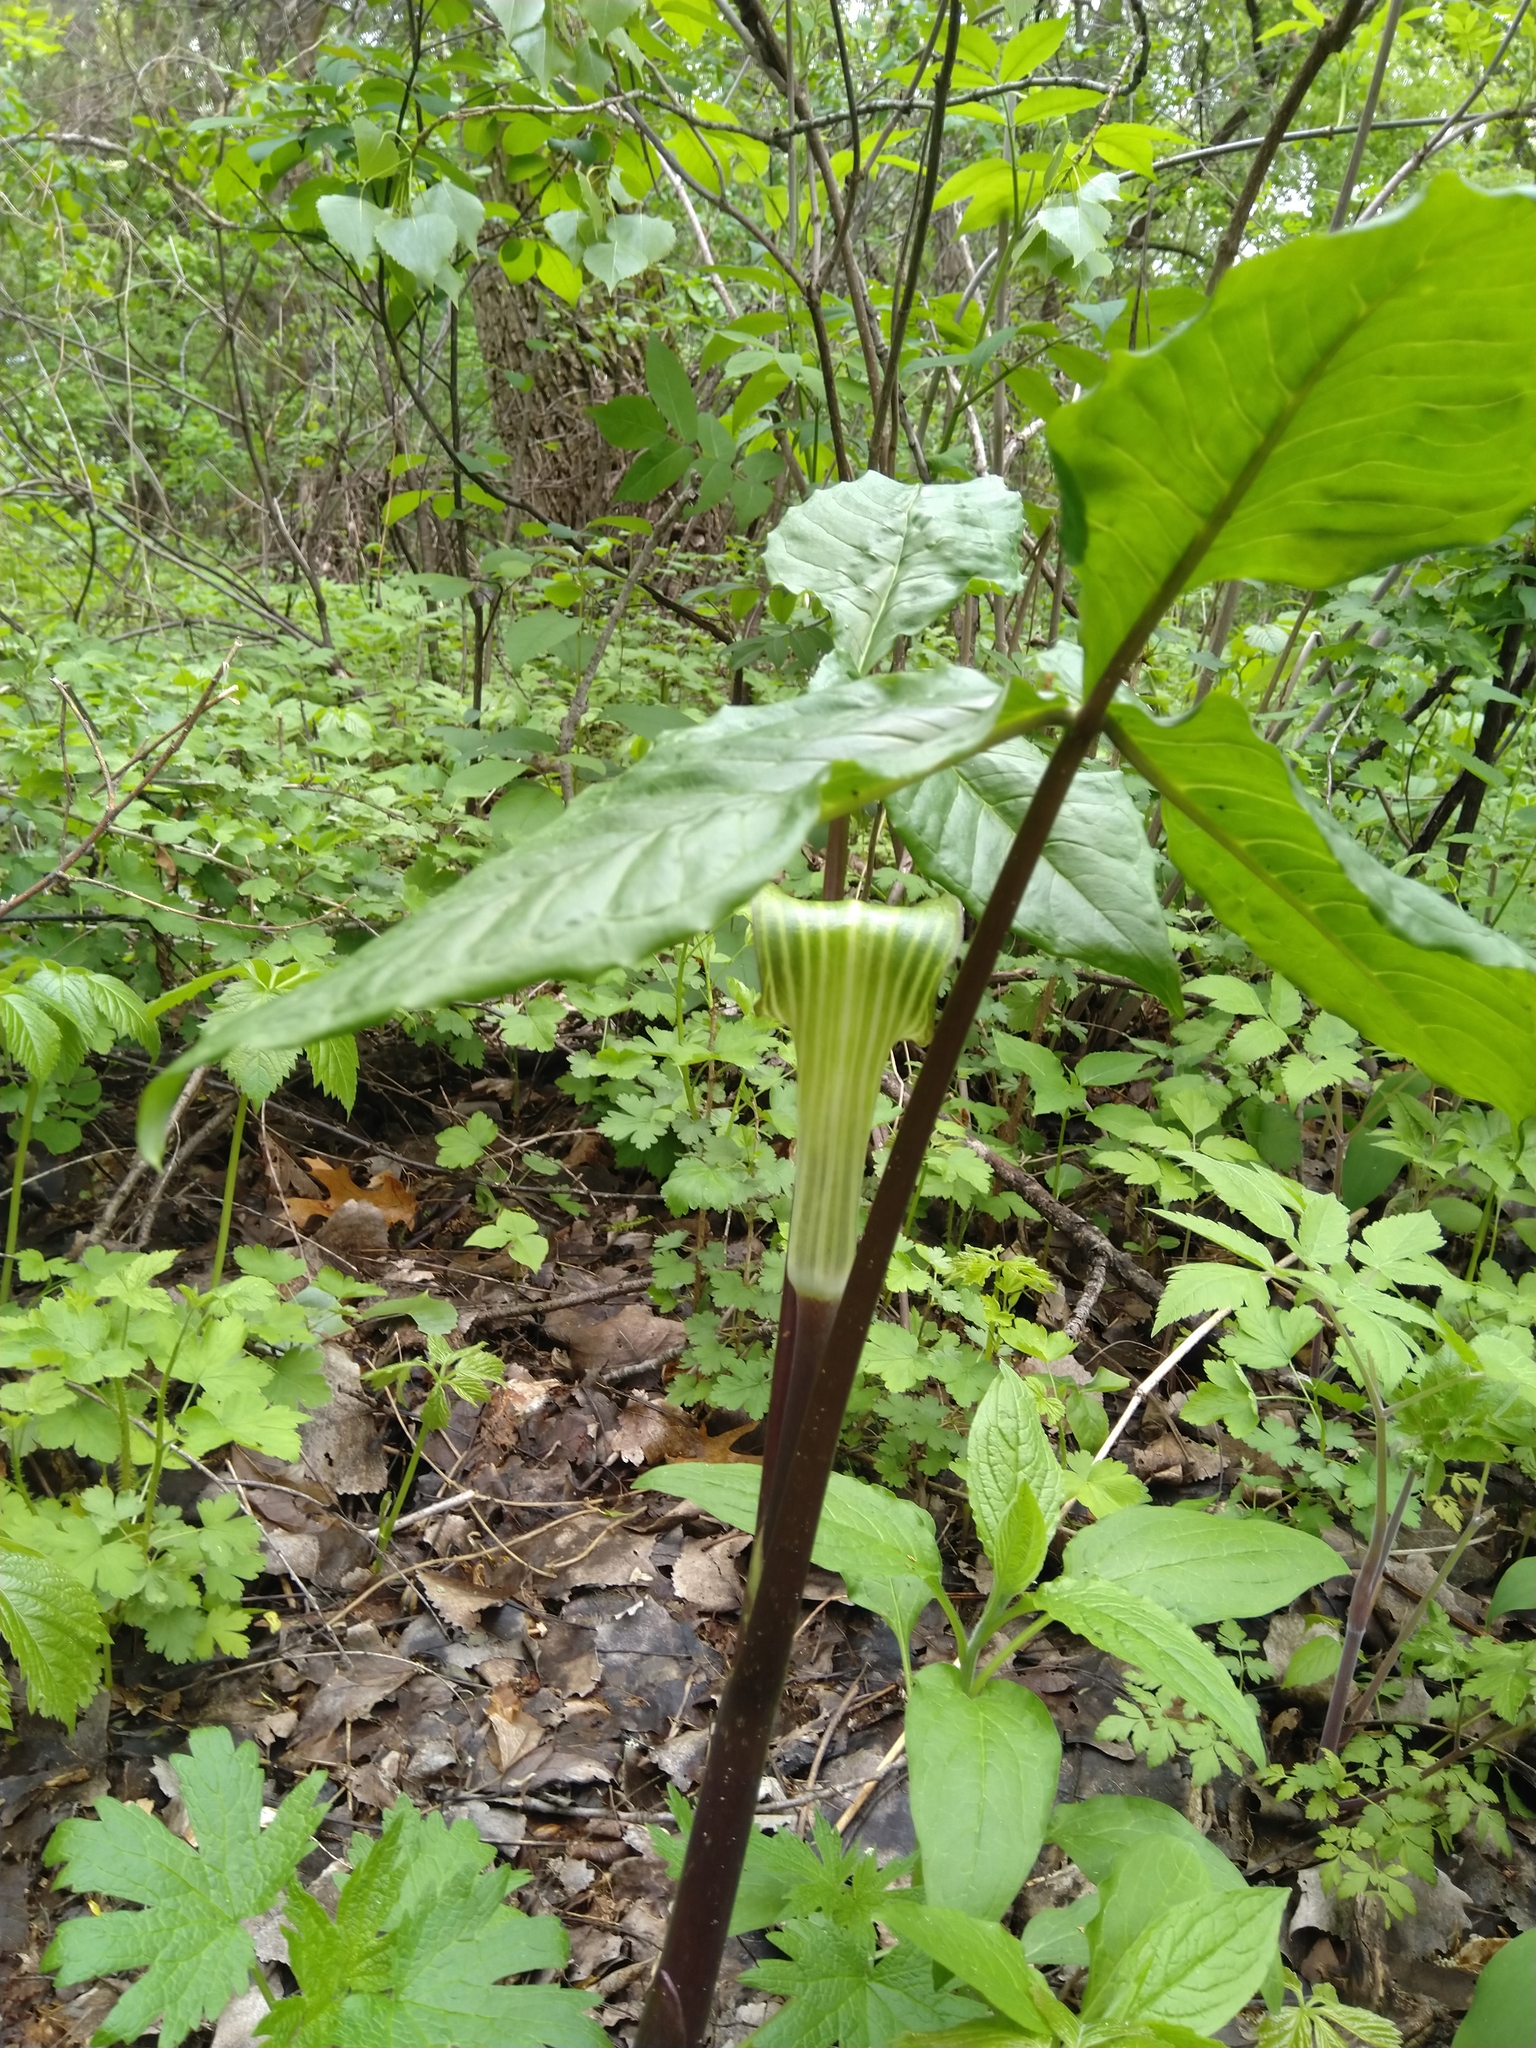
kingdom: Plantae
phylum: Tracheophyta
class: Liliopsida
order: Alismatales
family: Araceae
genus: Arisaema
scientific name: Arisaema triphyllum
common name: Jack-in-the-pulpit
